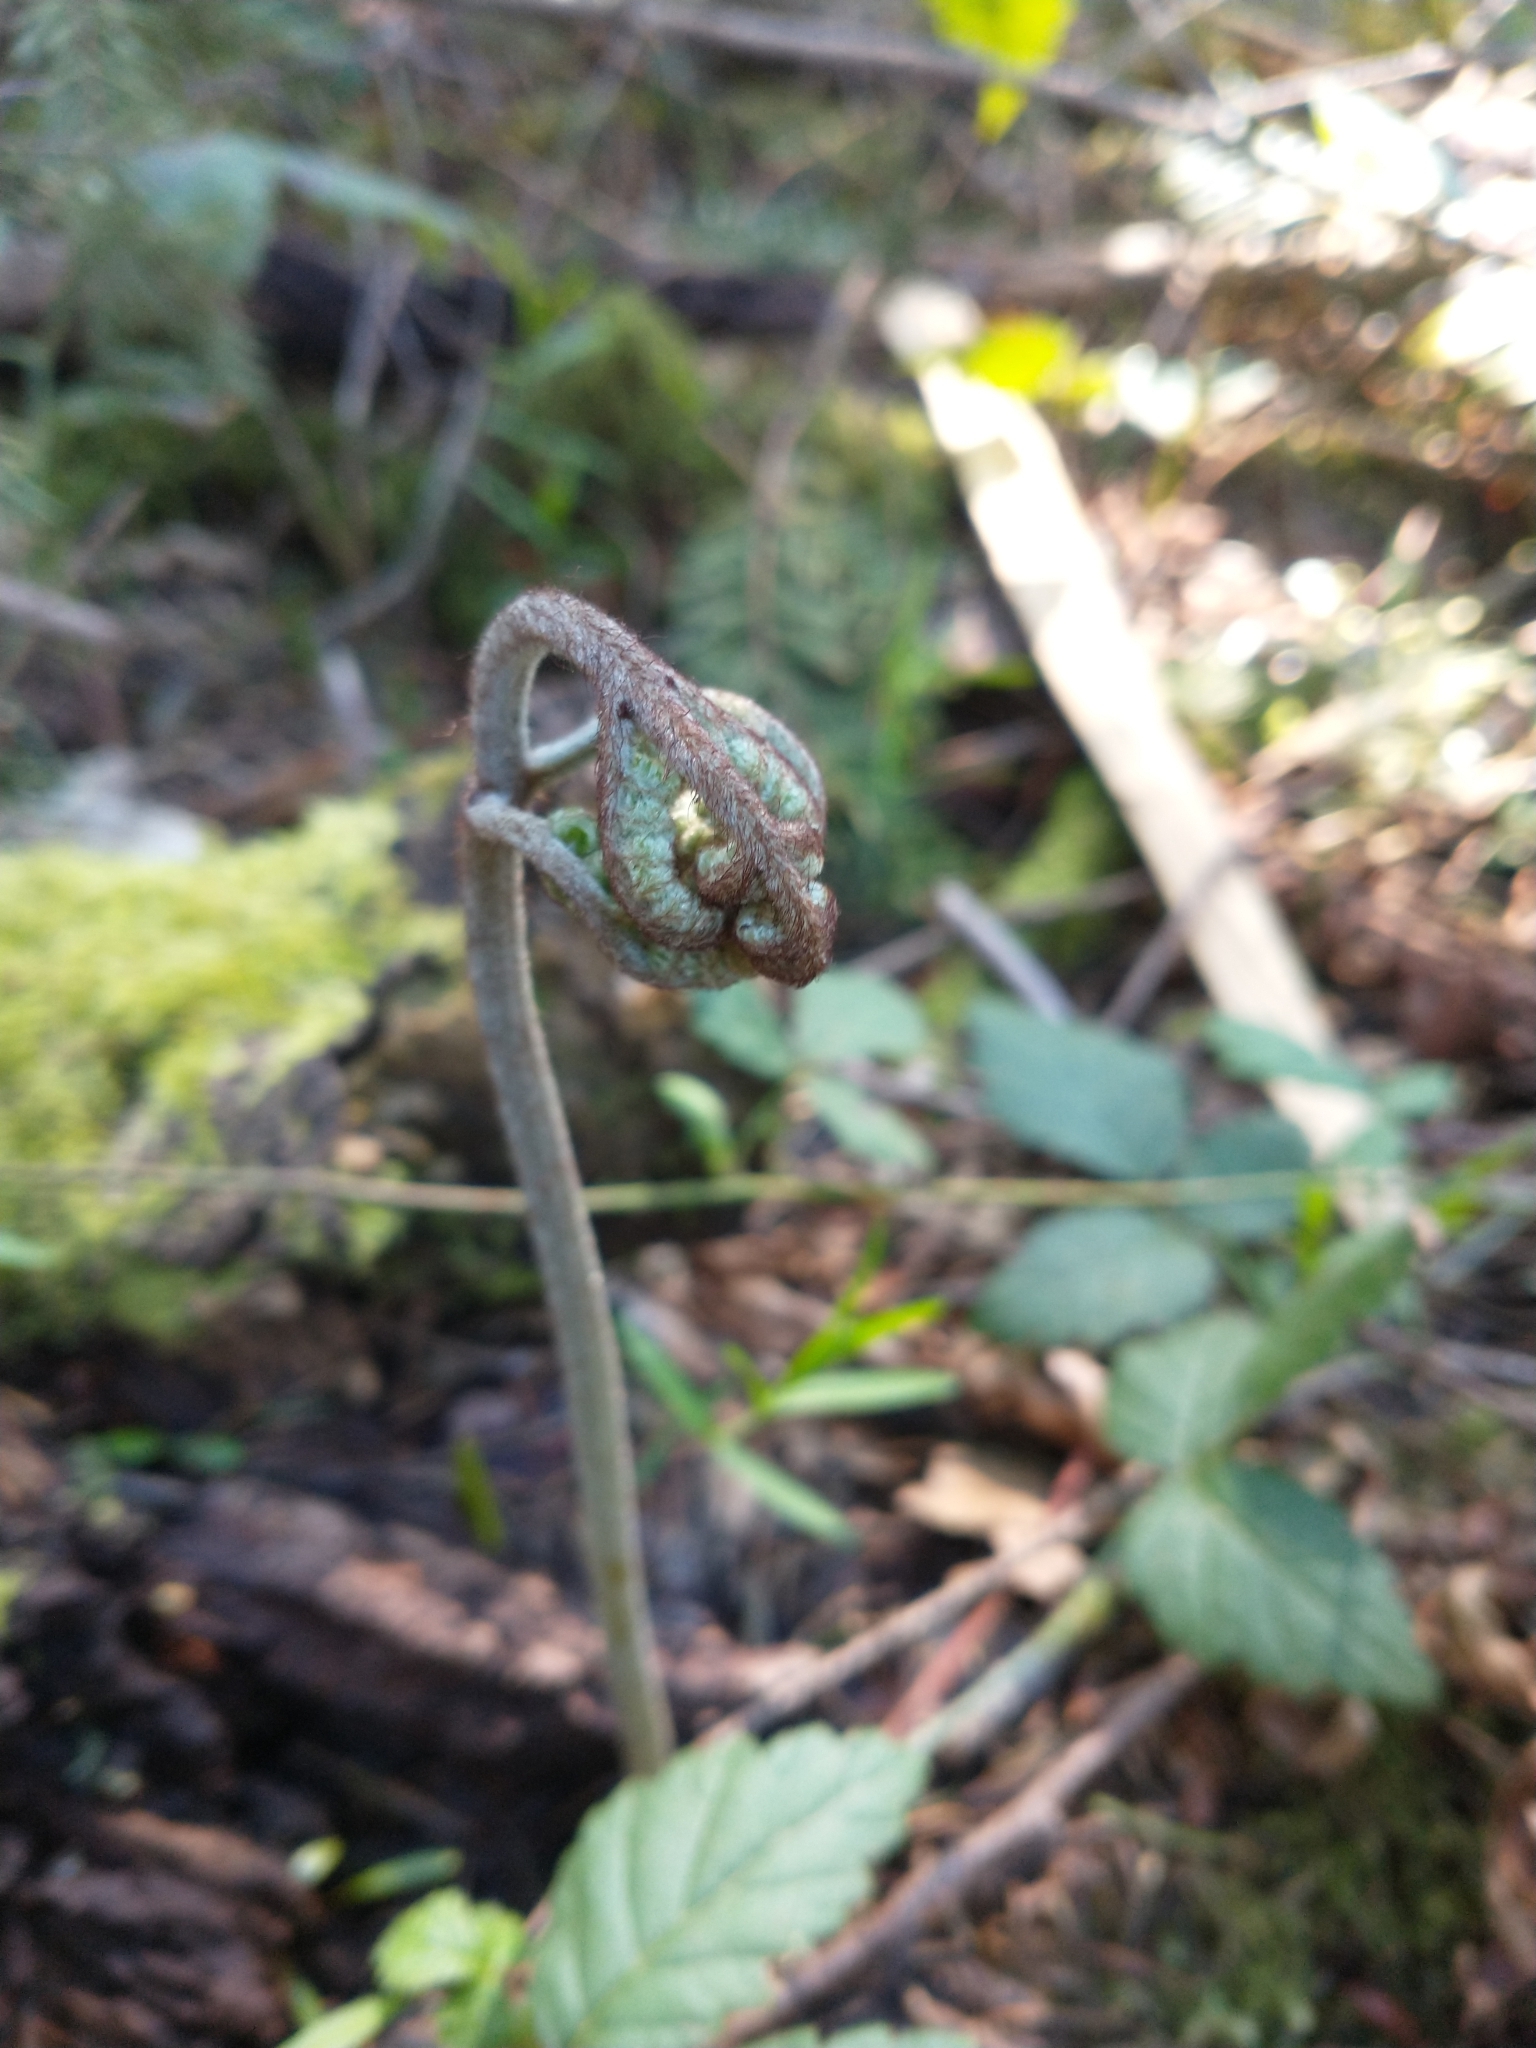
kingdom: Plantae
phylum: Tracheophyta
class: Polypodiopsida
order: Polypodiales
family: Dennstaedtiaceae
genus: Pteridium
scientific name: Pteridium aquilinum
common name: Bracken
